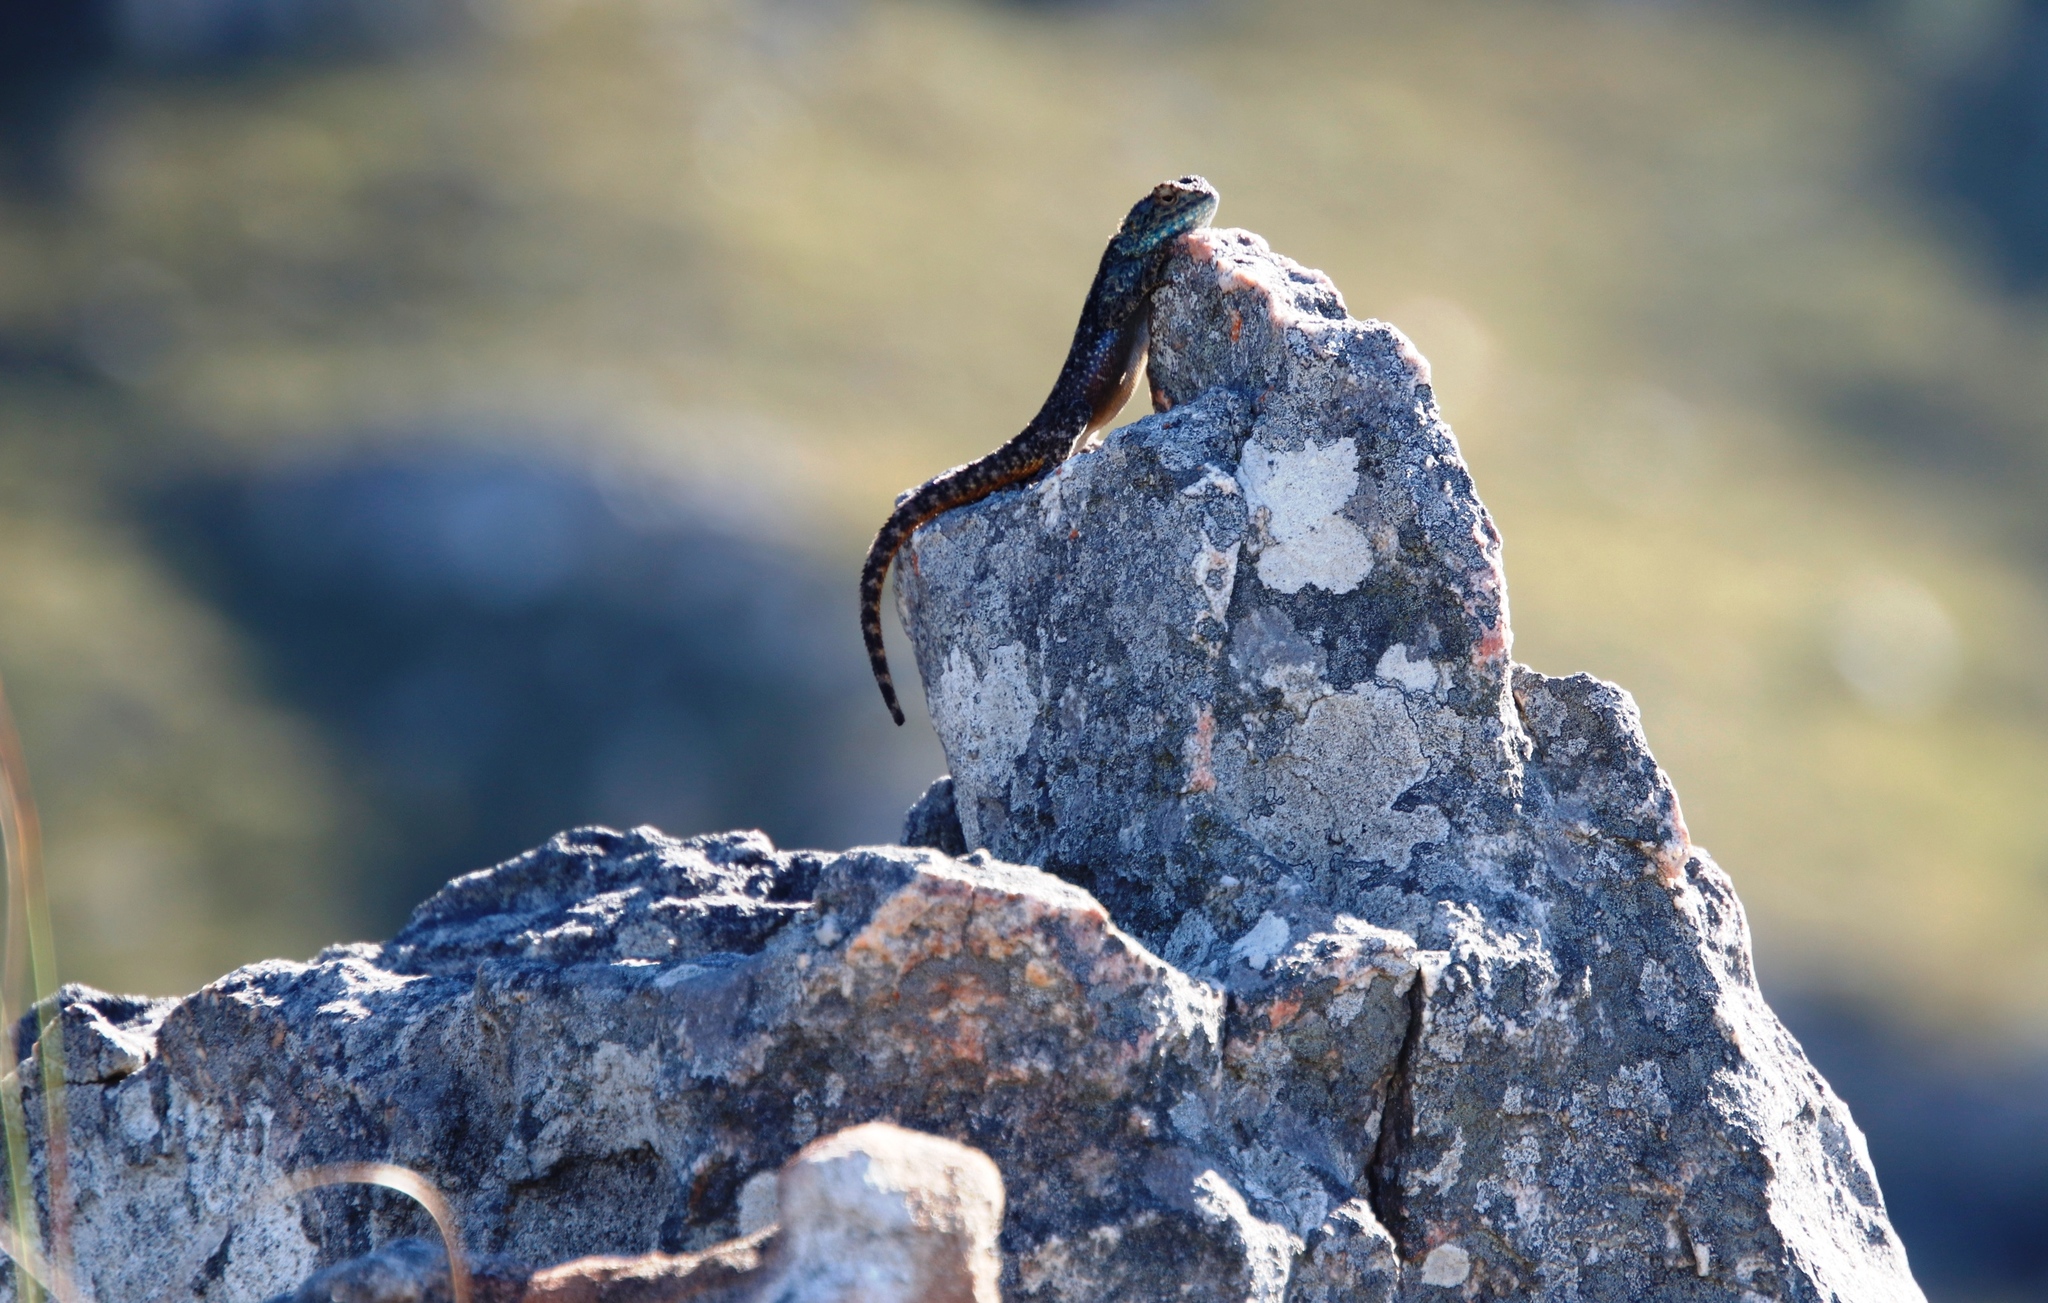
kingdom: Animalia
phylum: Chordata
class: Squamata
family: Agamidae
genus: Agama
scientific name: Agama atra
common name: Southern african rock agama
